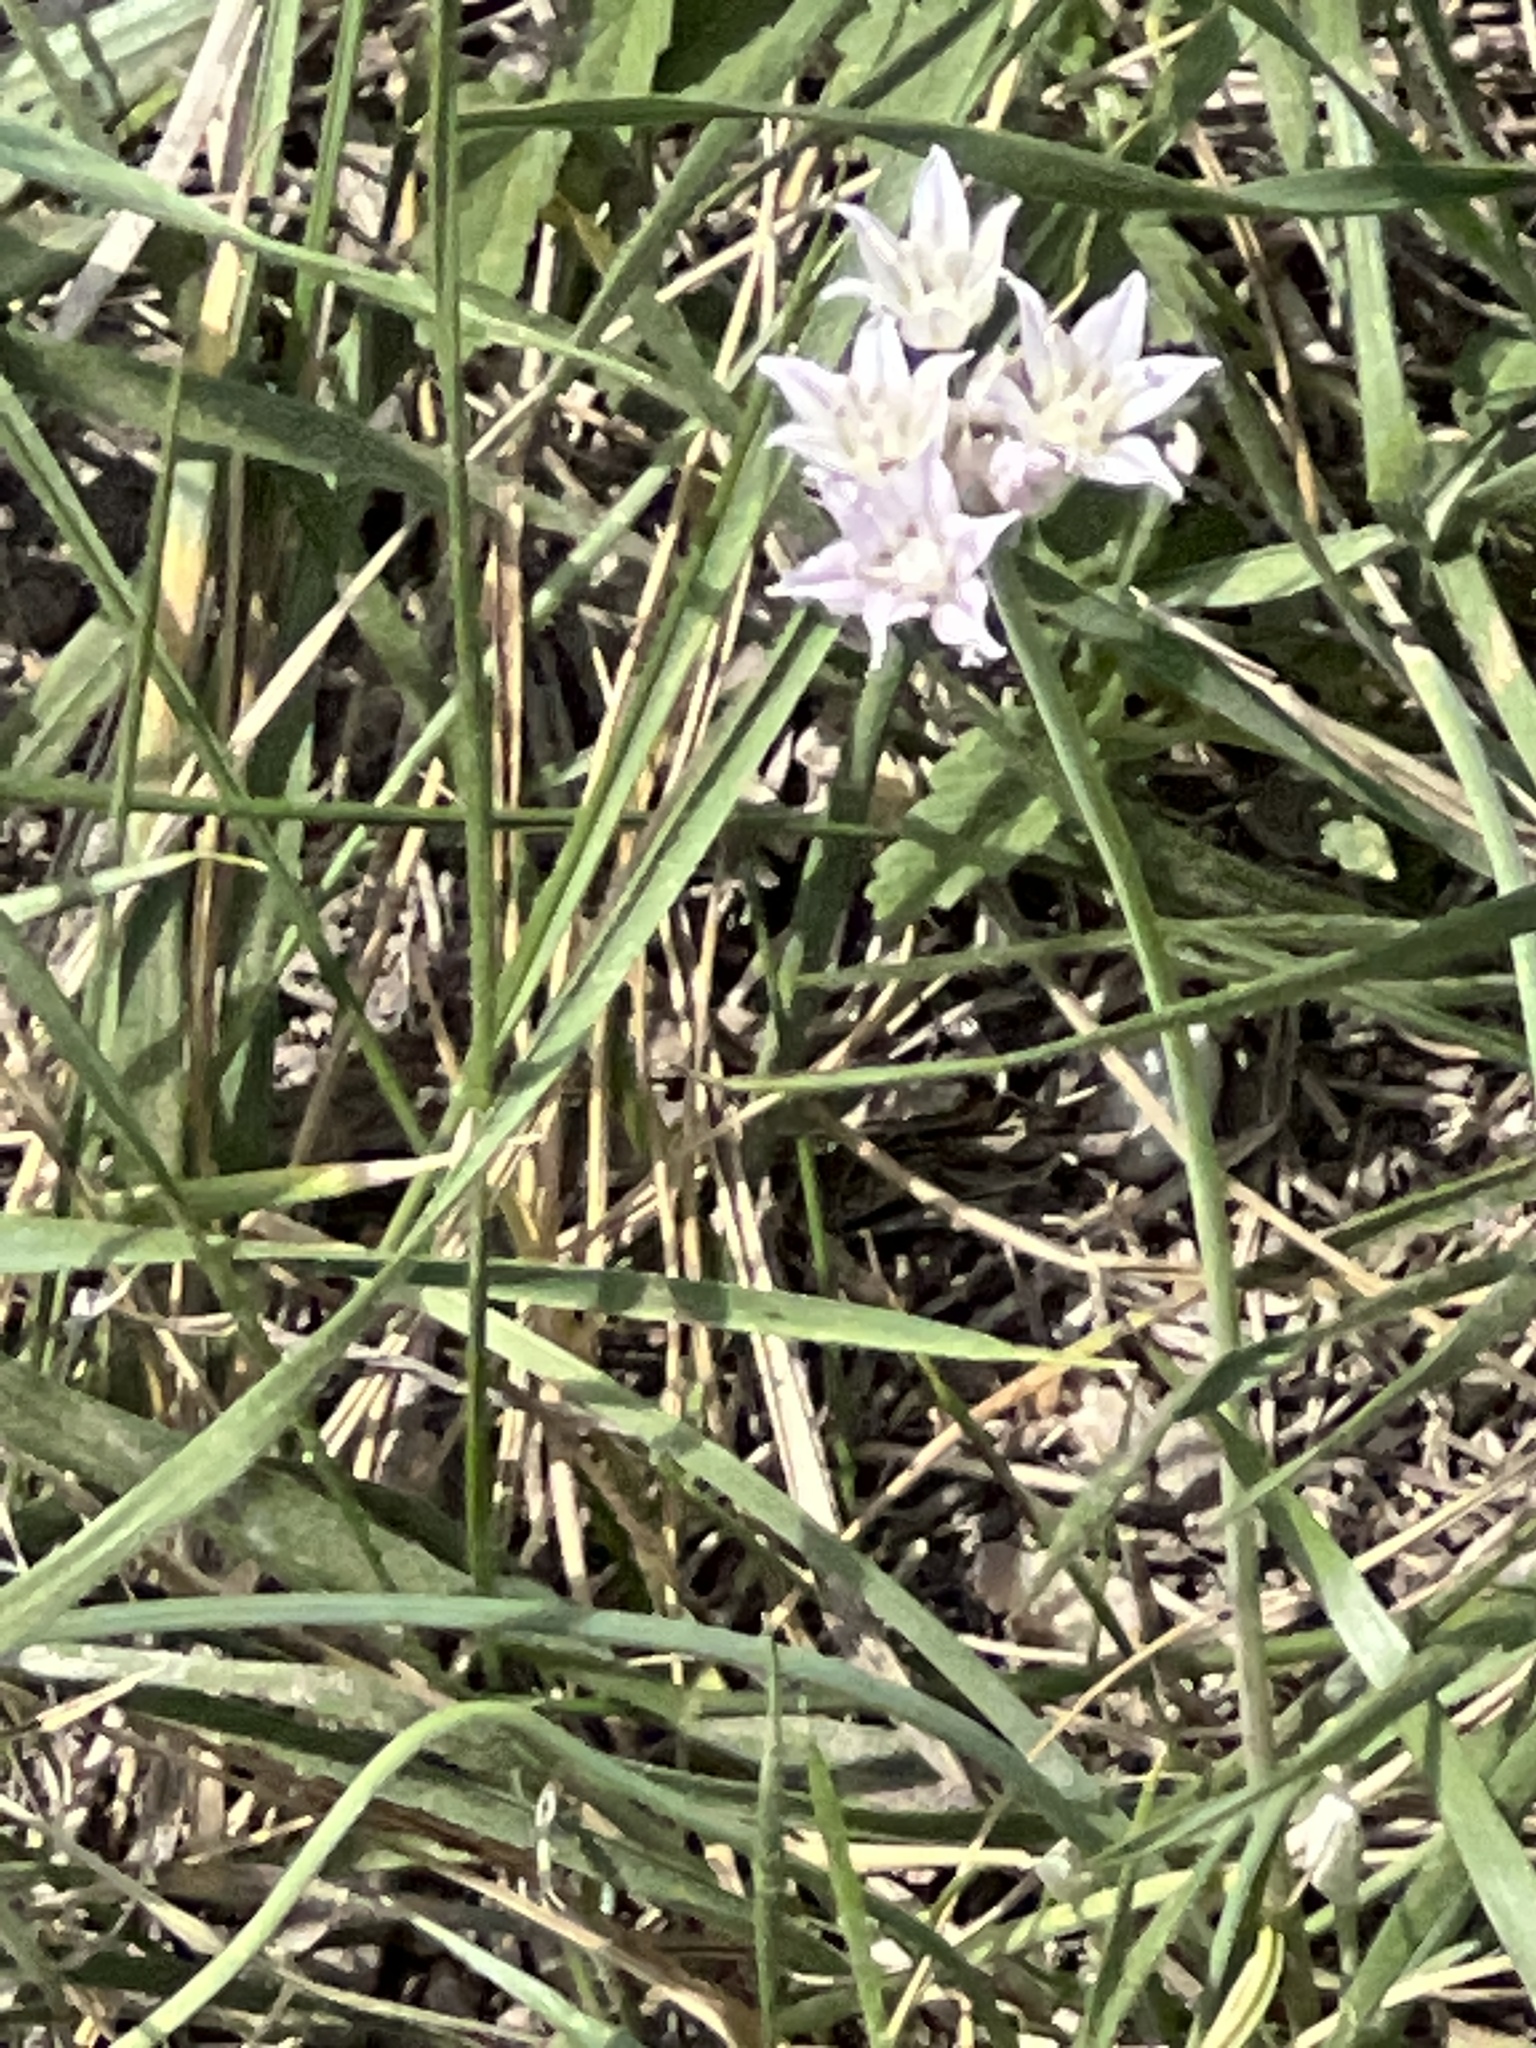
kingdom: Plantae
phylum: Tracheophyta
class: Liliopsida
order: Asparagales
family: Amaryllidaceae
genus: Allium
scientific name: Allium drummondii
